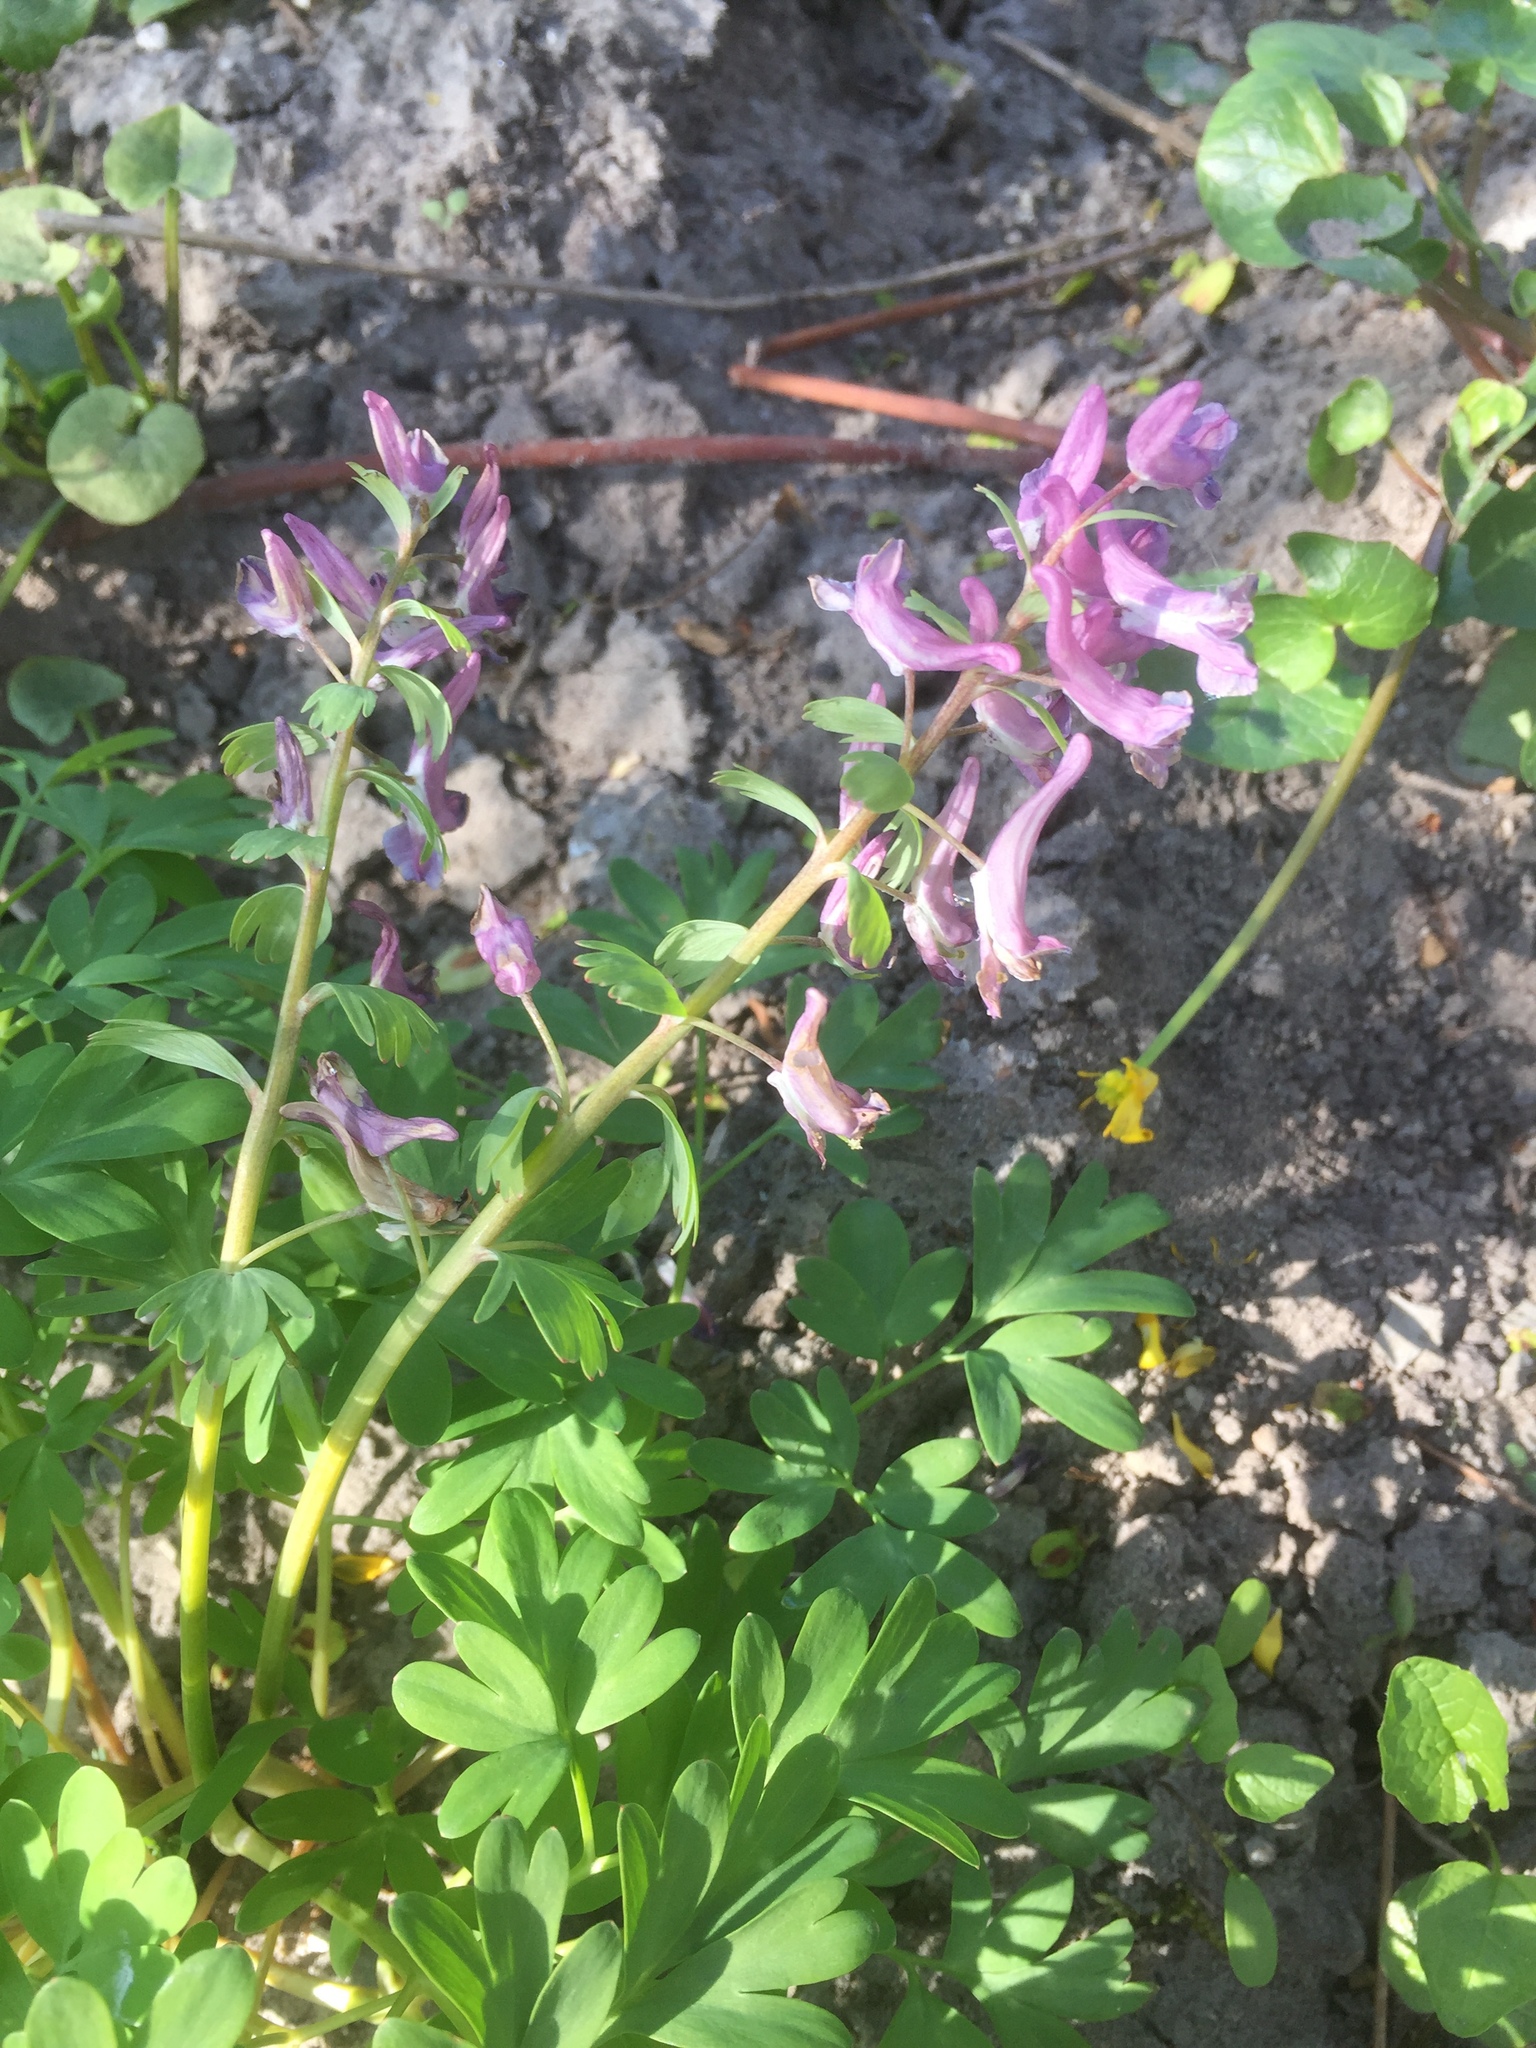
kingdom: Plantae
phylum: Tracheophyta
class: Magnoliopsida
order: Ranunculales
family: Papaveraceae
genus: Corydalis
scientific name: Corydalis solida
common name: Bird-in-a-bush
